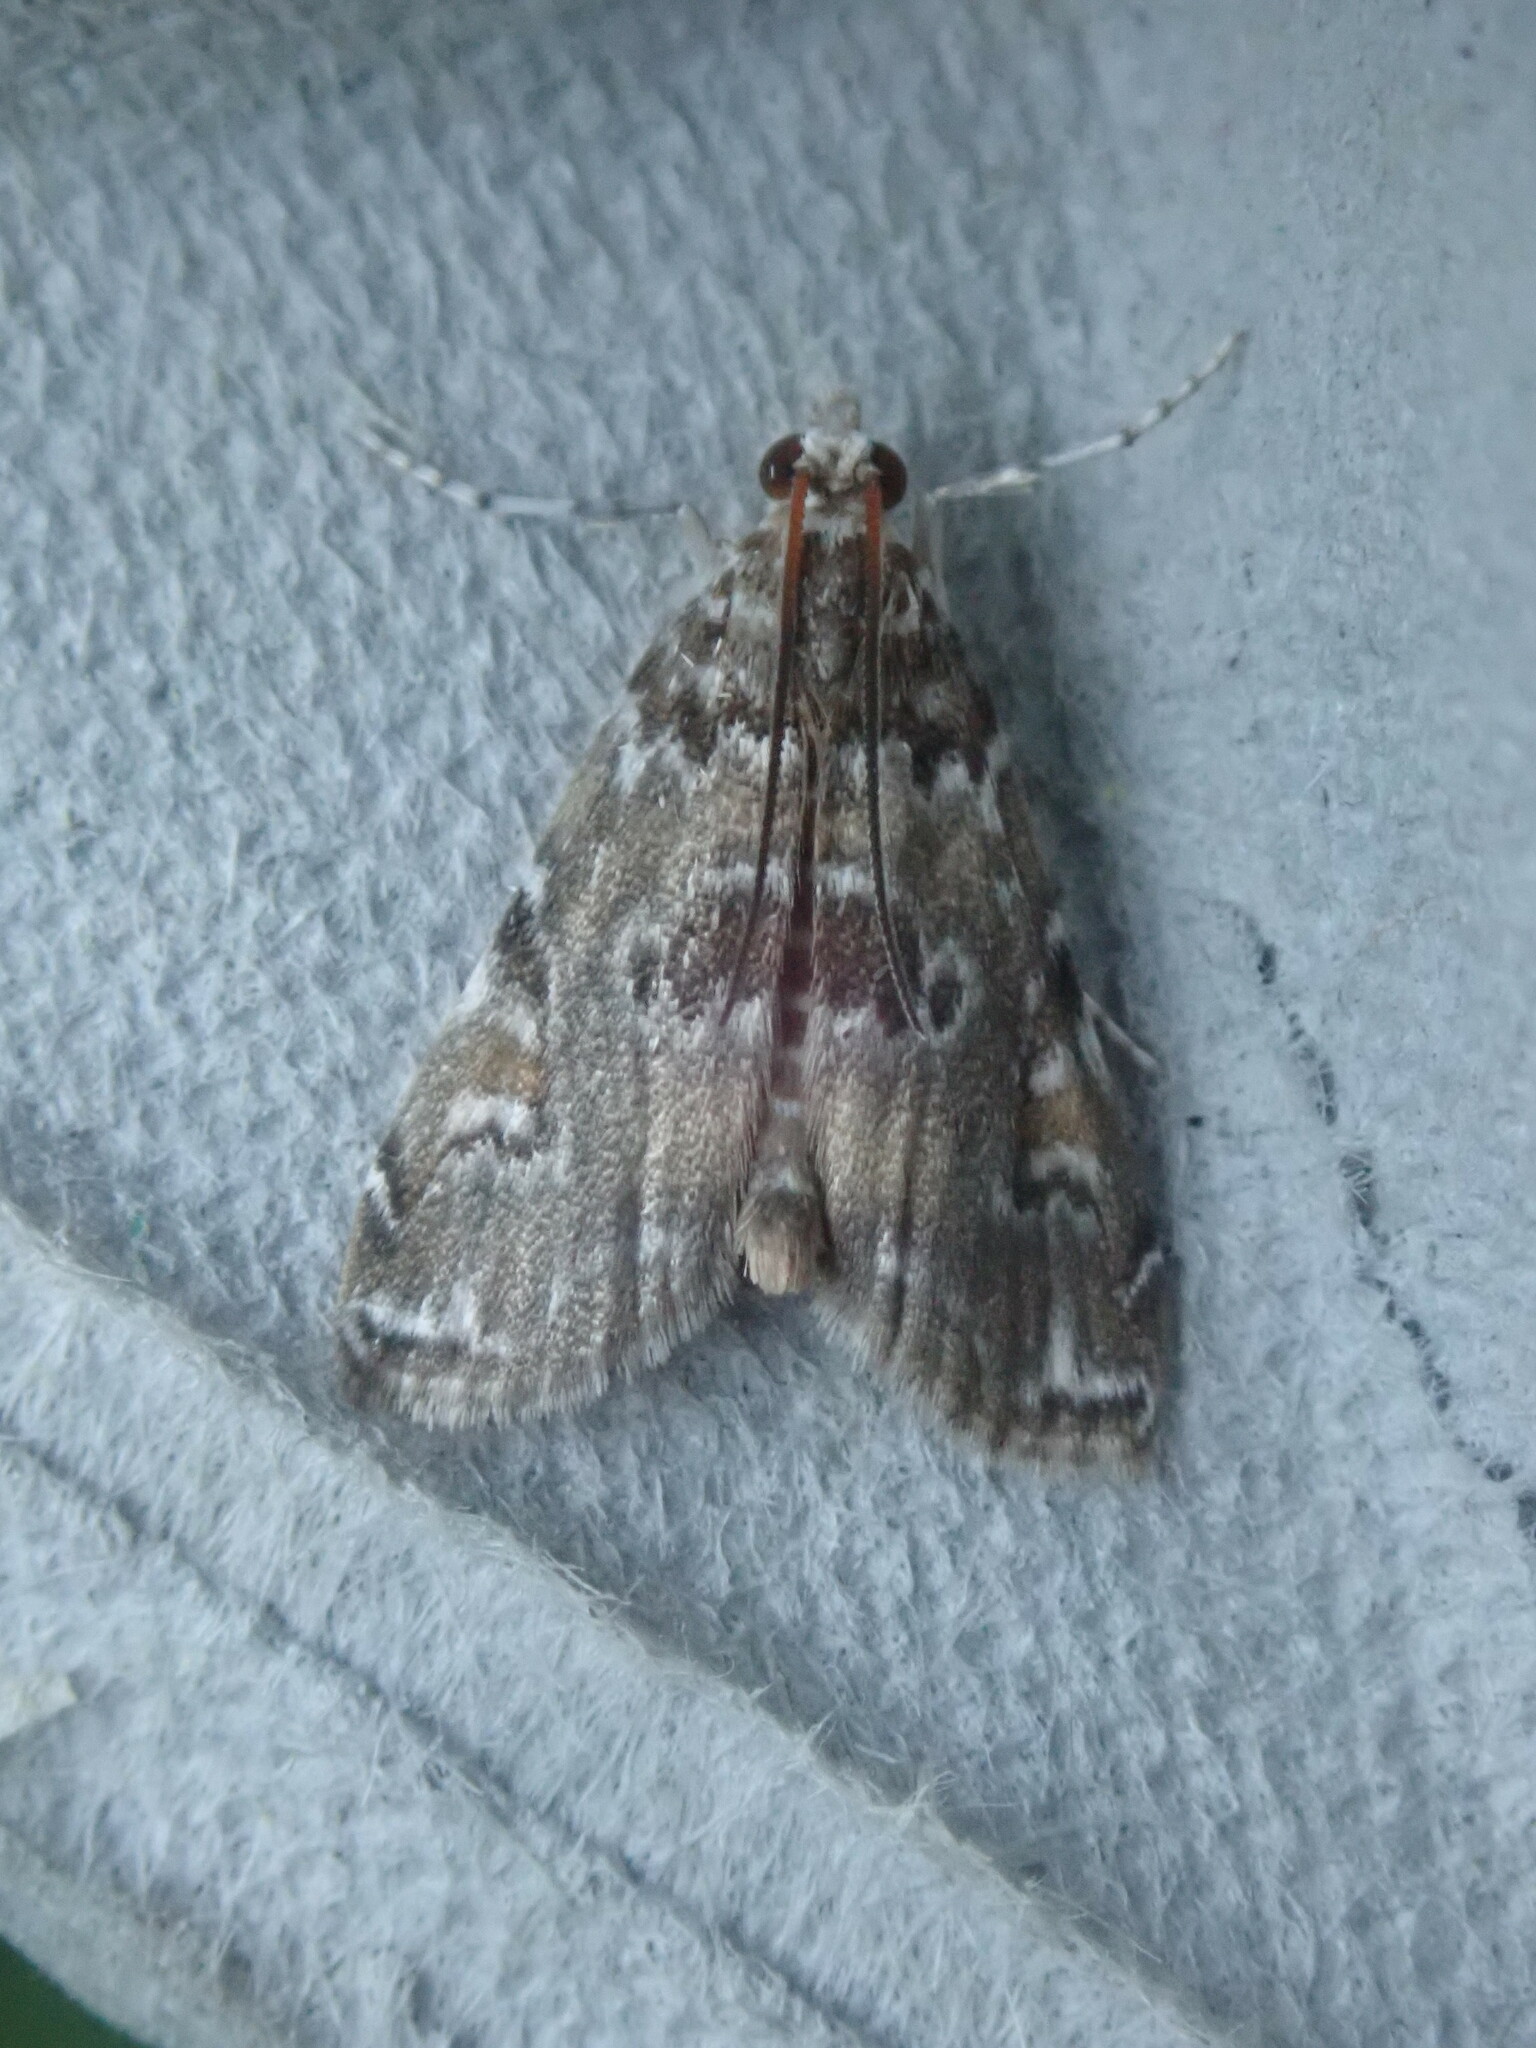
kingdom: Animalia
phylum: Arthropoda
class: Insecta
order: Lepidoptera
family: Crambidae
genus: Elophila
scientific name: Elophila gyralis
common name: Waterlily borer moth
